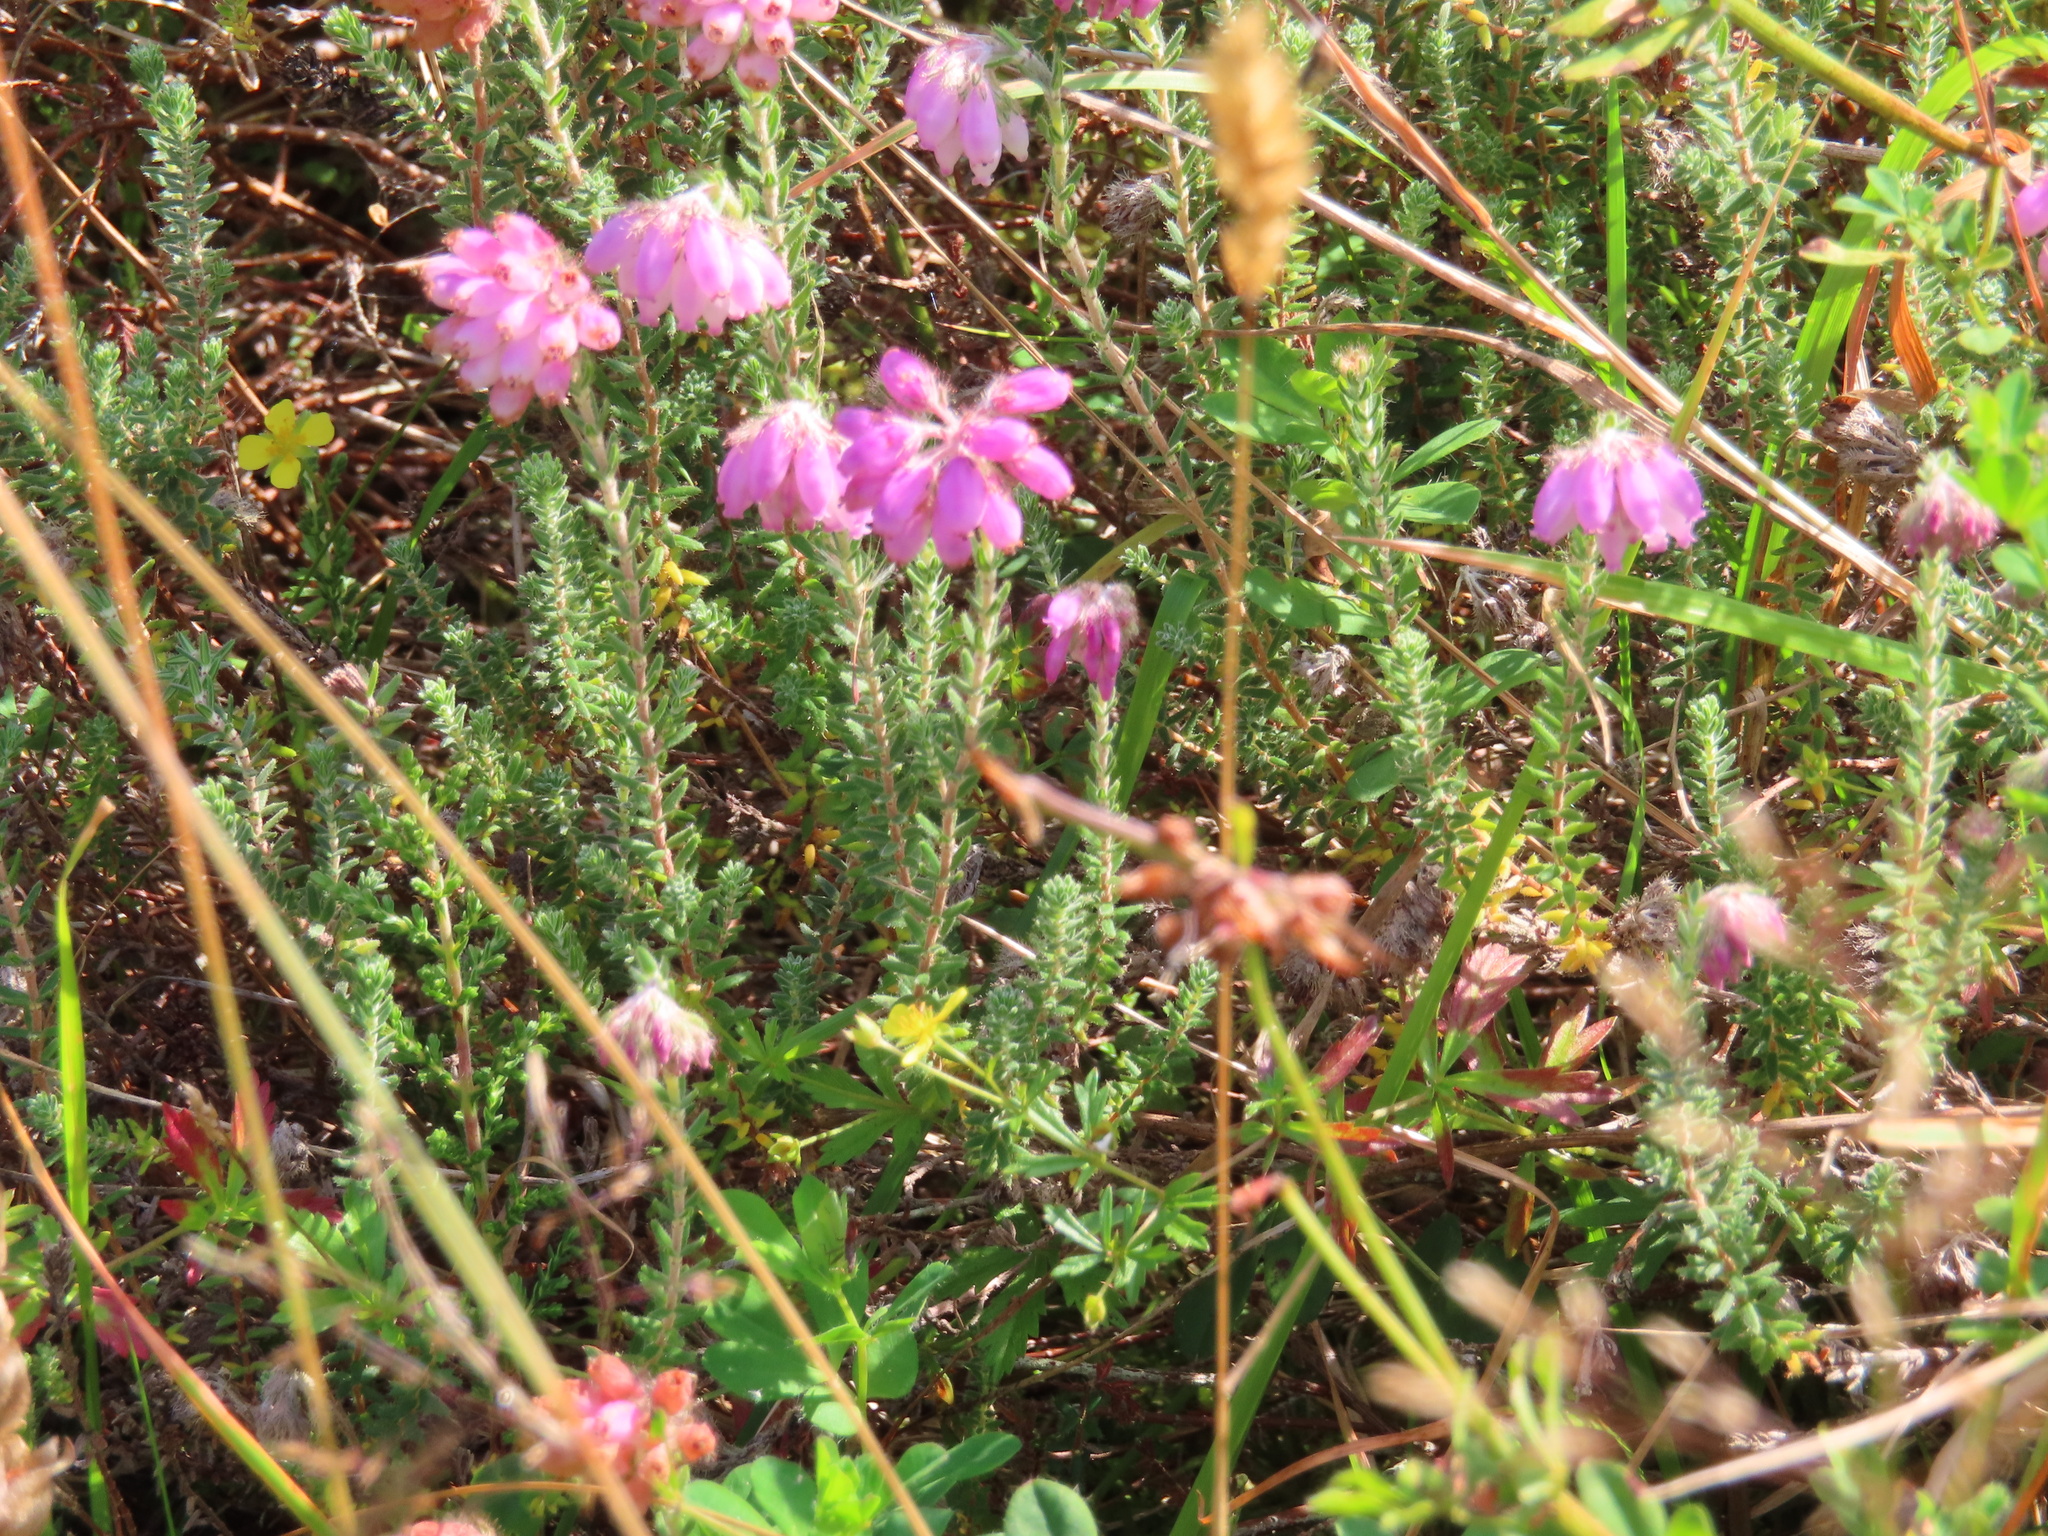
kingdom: Plantae
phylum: Tracheophyta
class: Magnoliopsida
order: Ericales
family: Ericaceae
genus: Erica
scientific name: Erica tetralix
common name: Cross-leaved heath
